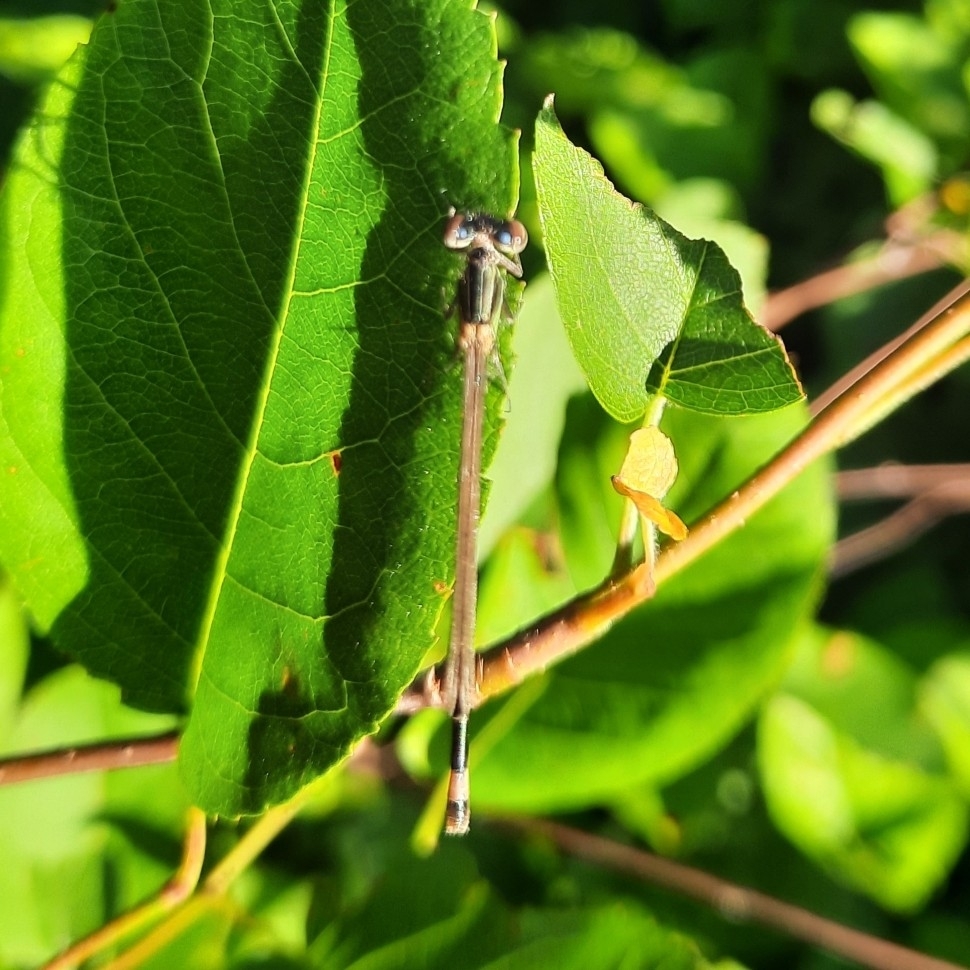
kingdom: Animalia
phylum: Arthropoda
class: Insecta
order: Odonata
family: Coenagrionidae
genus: Ischnura
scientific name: Ischnura elegans
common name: Blue-tailed damselfly
